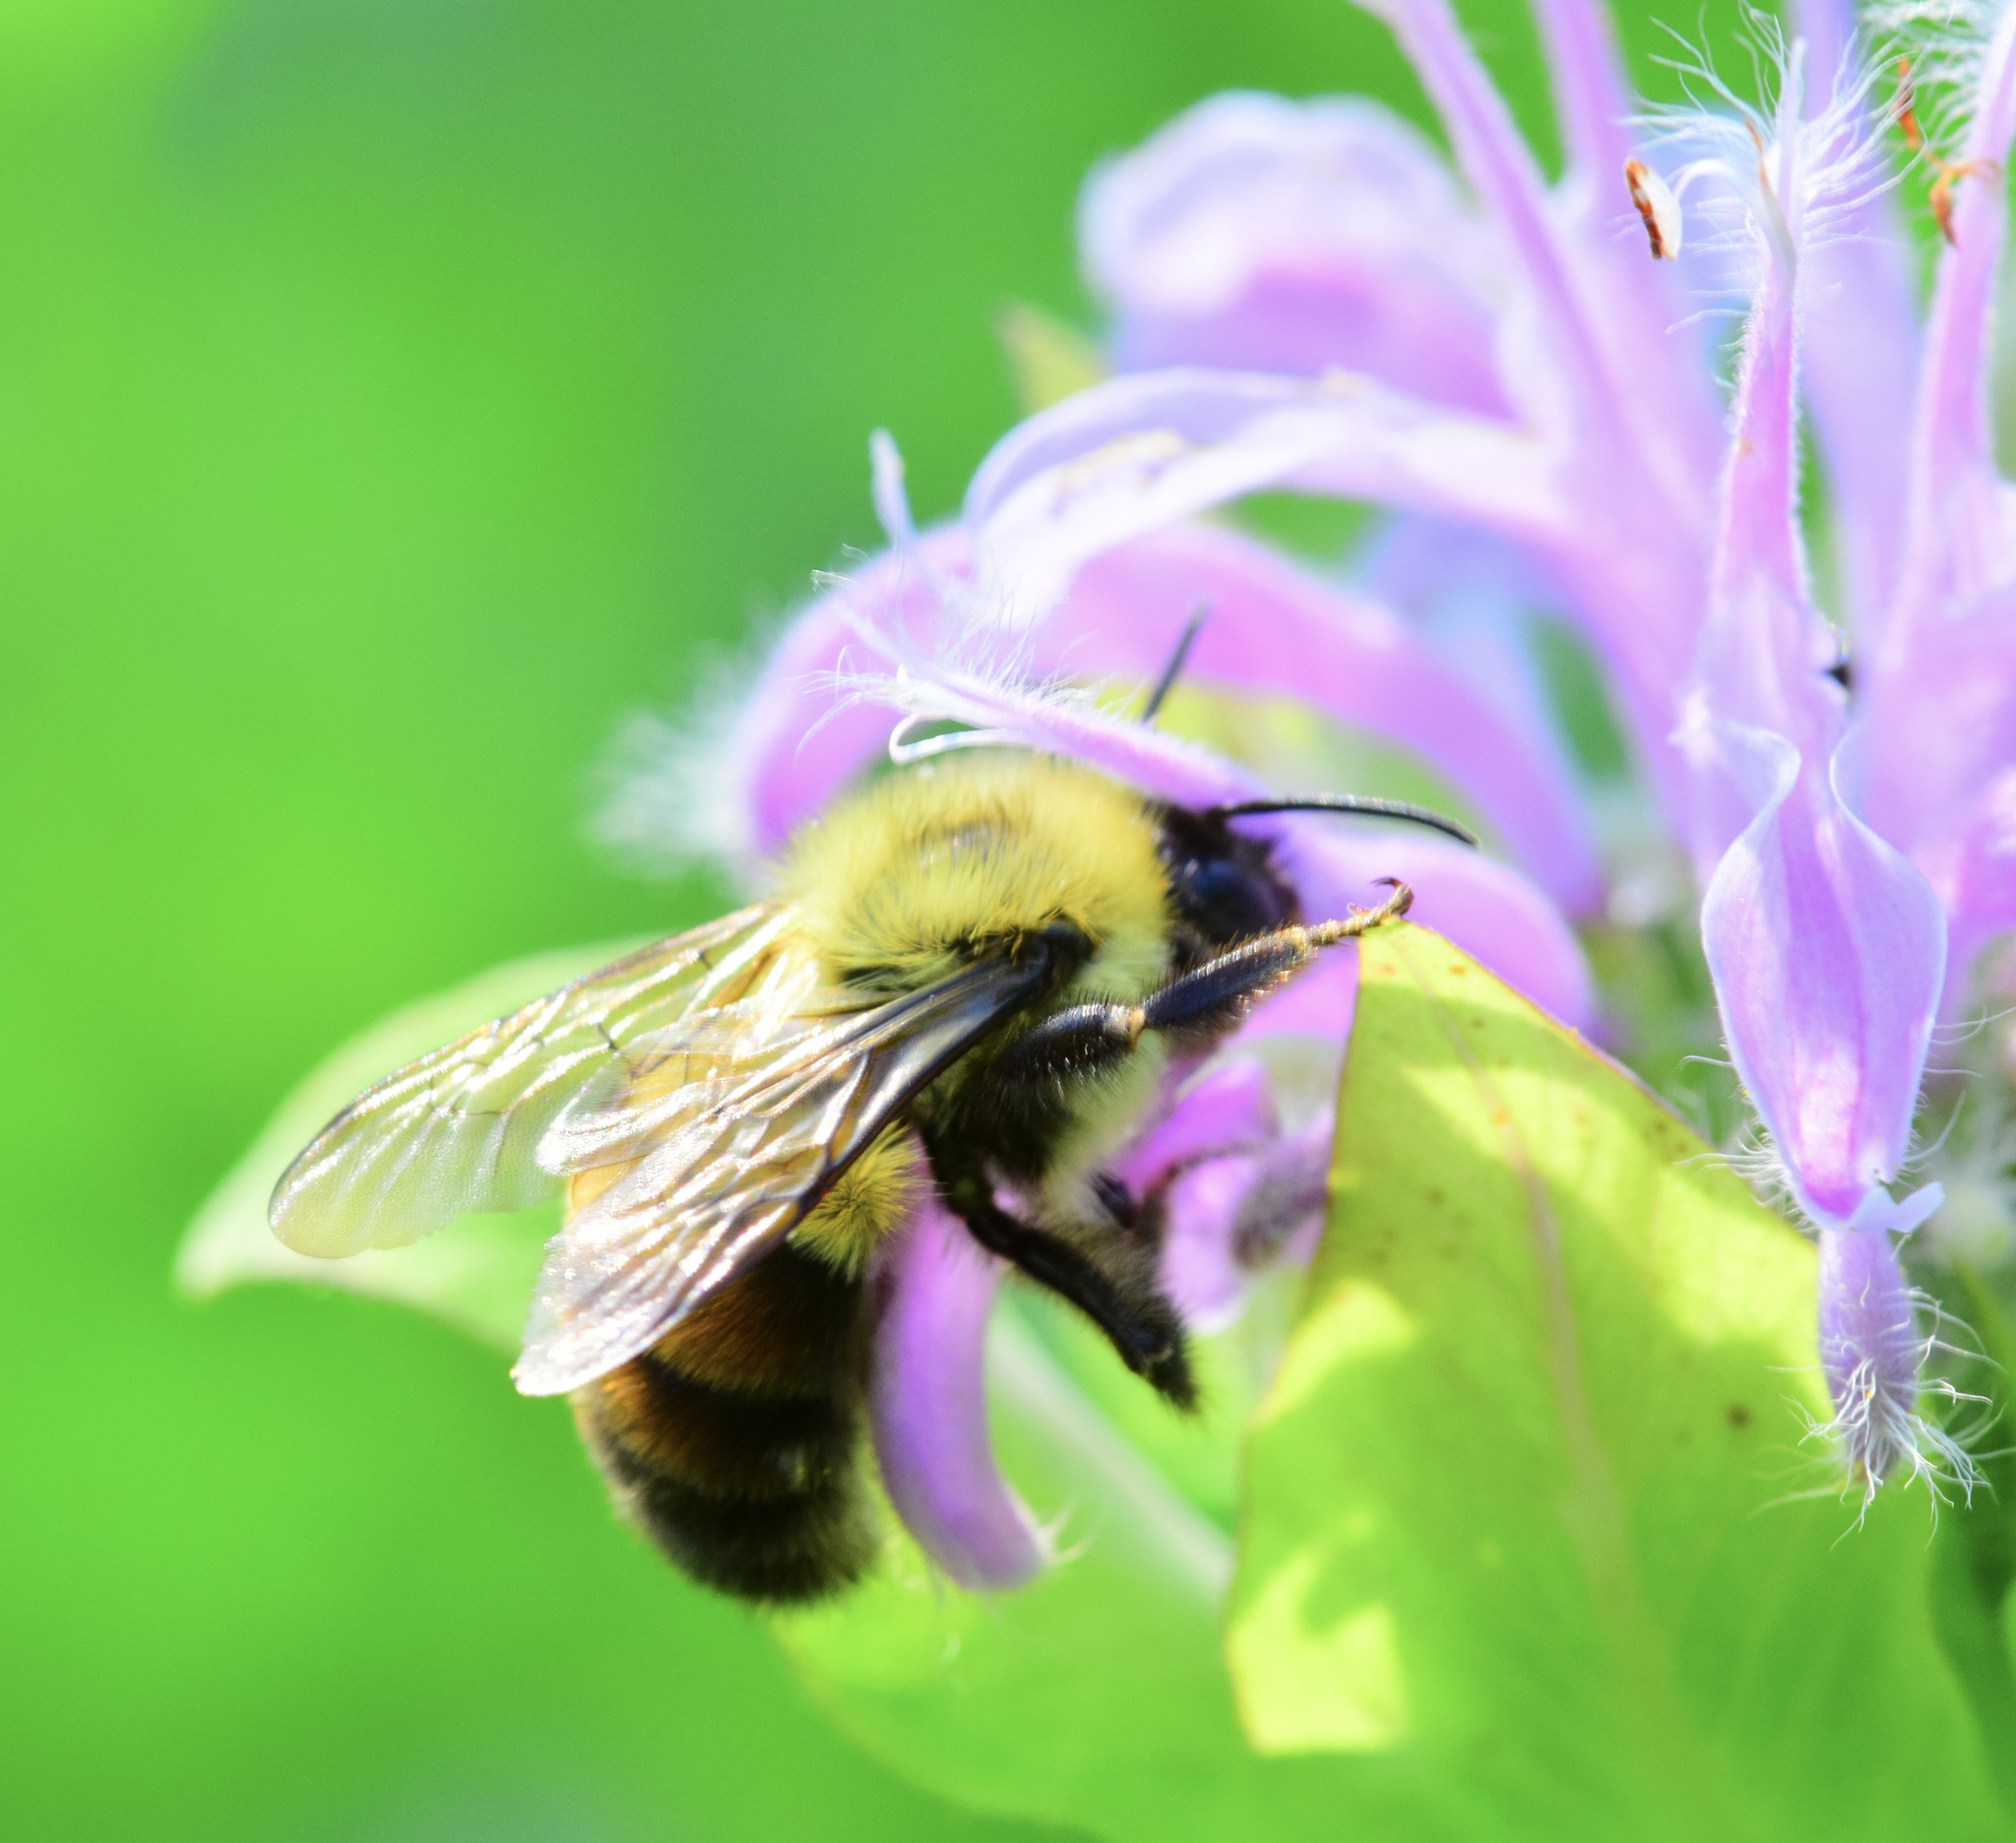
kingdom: Animalia
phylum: Arthropoda
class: Insecta
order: Hymenoptera
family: Apidae
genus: Bombus
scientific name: Bombus bimaculatus
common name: Two-spotted bumble bee
